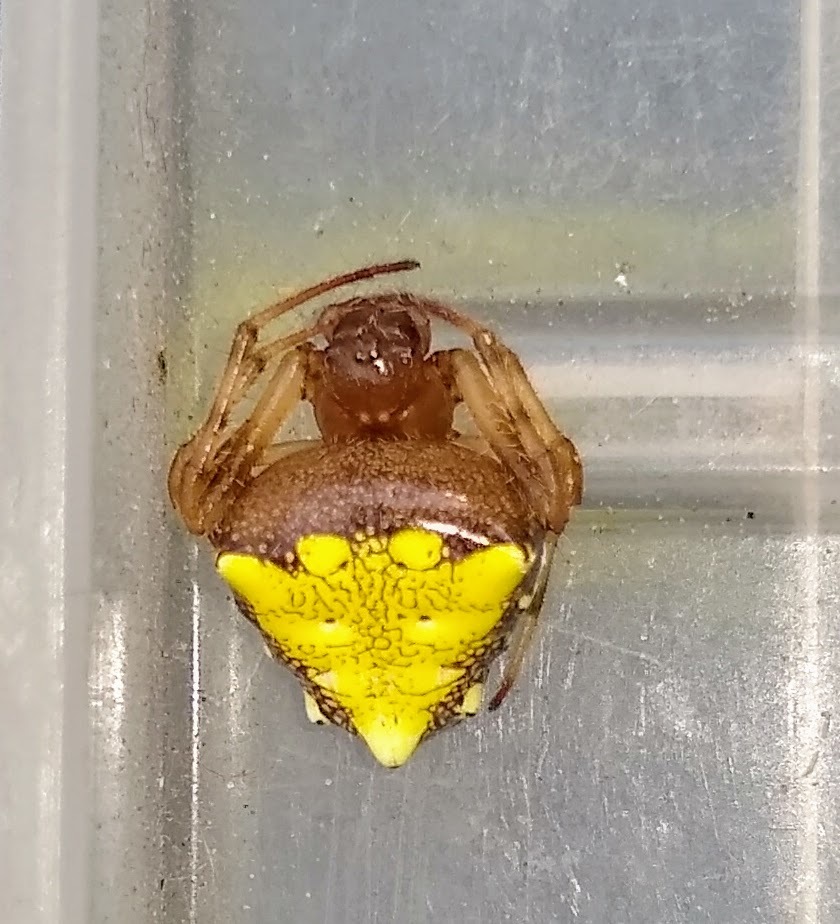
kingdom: Animalia
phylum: Arthropoda
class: Arachnida
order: Araneae
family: Araneidae
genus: Verrucosa
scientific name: Verrucosa arenata
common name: Orb weavers
